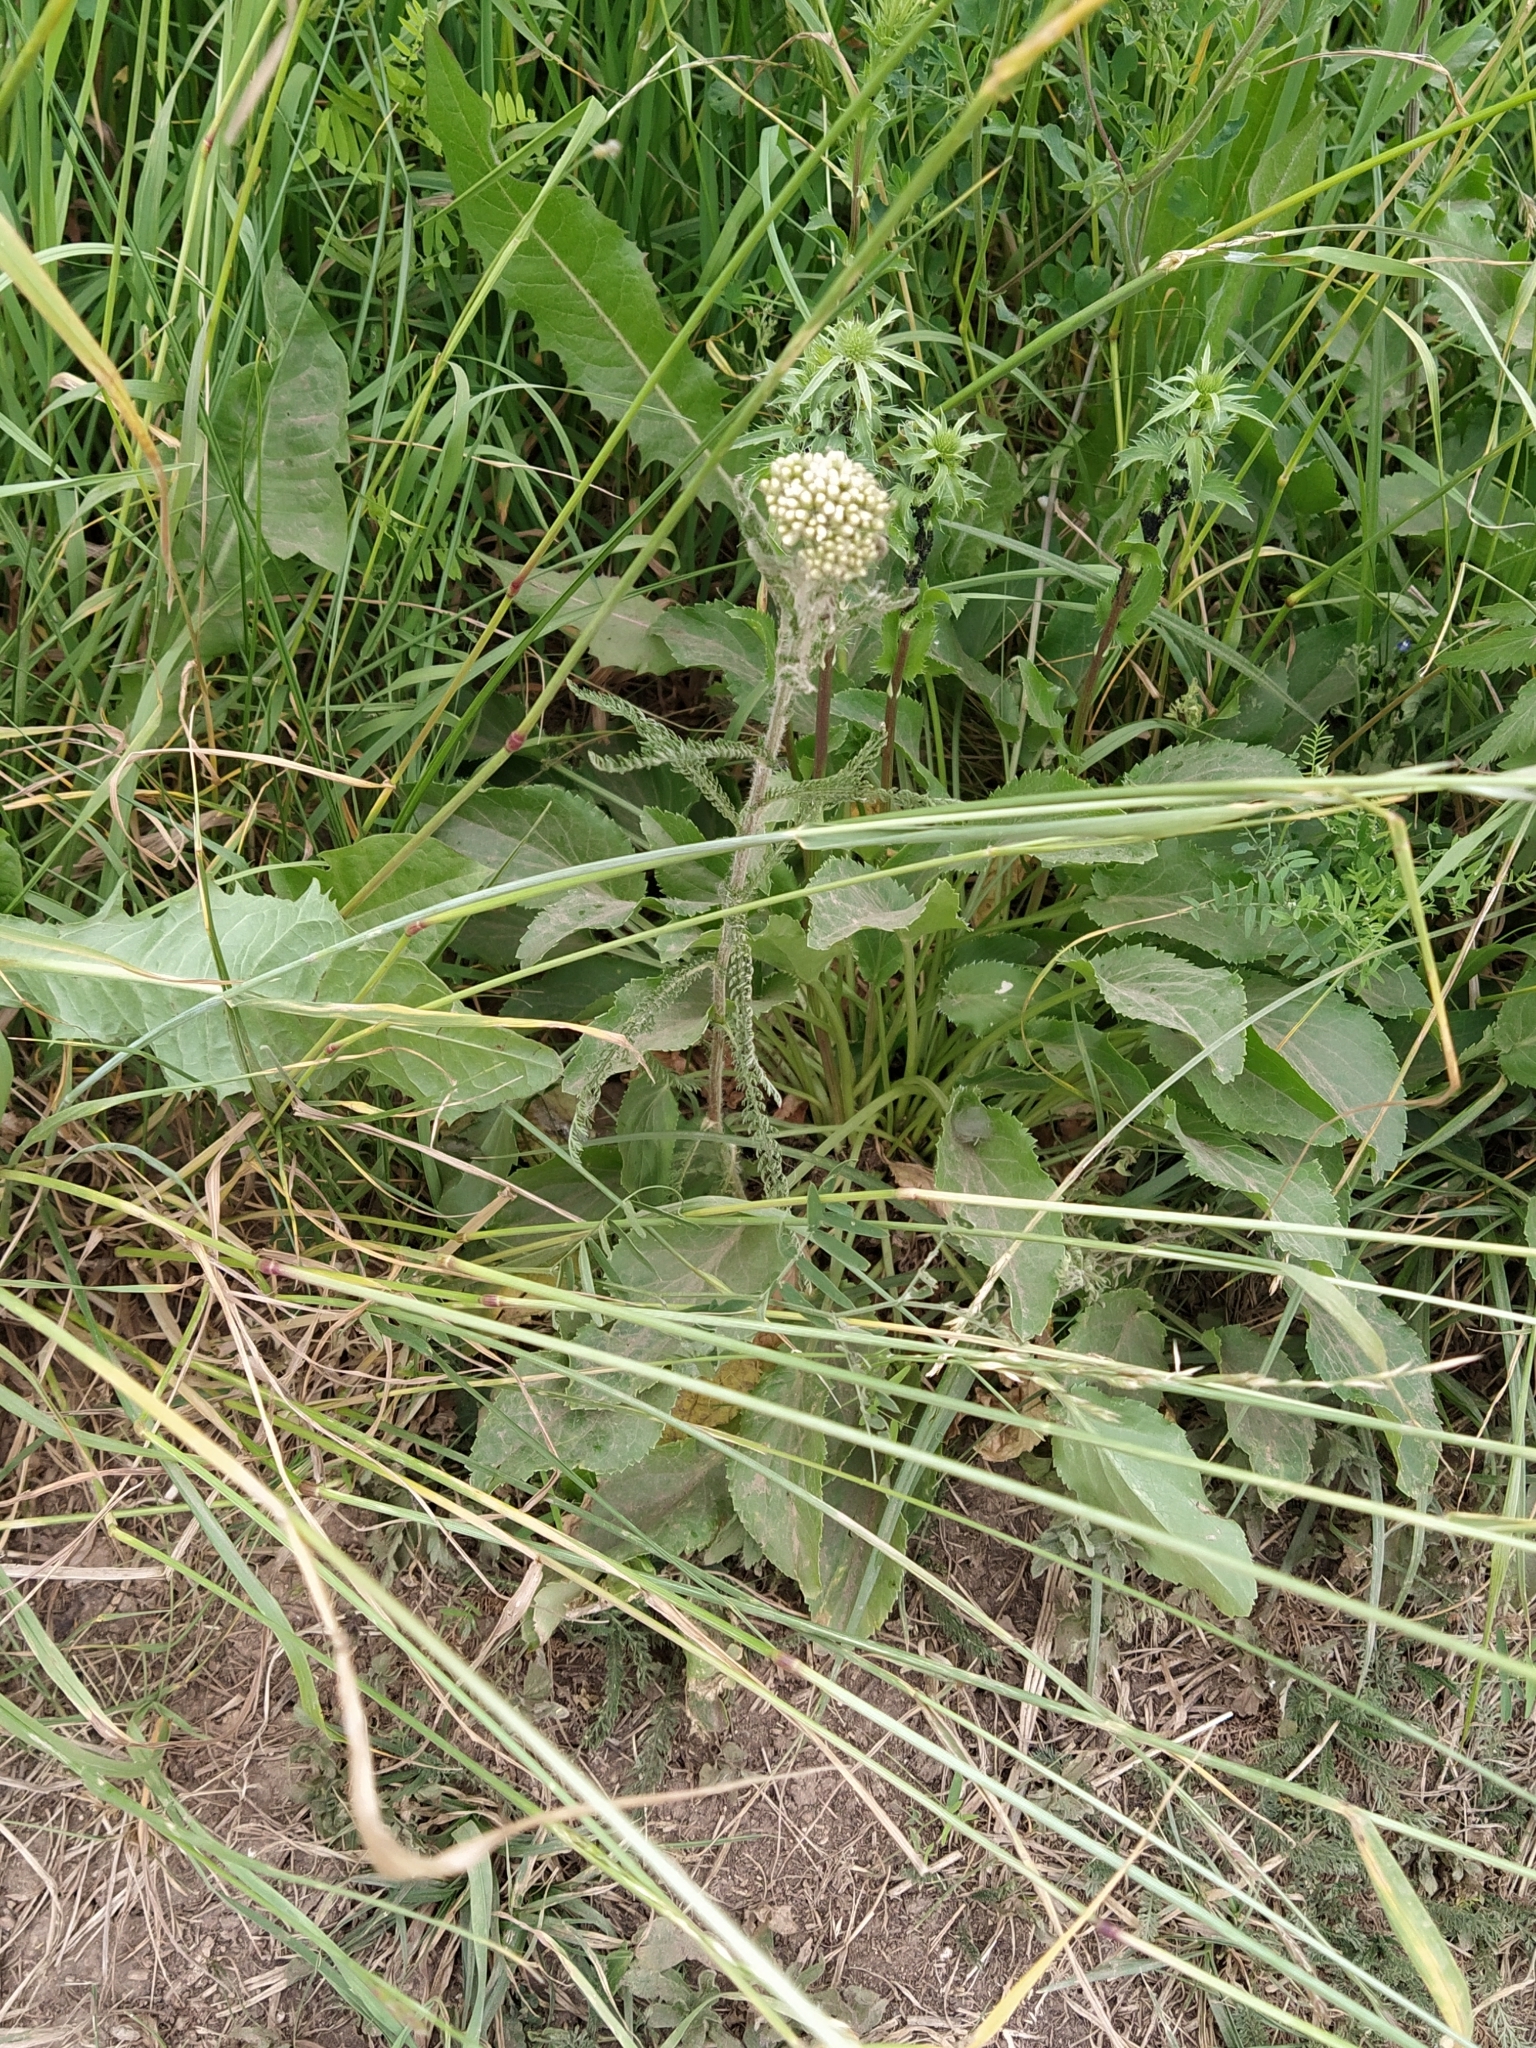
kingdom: Plantae
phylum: Tracheophyta
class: Magnoliopsida
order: Asterales
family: Asteraceae
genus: Achillea
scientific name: Achillea millefolium
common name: Yarrow
